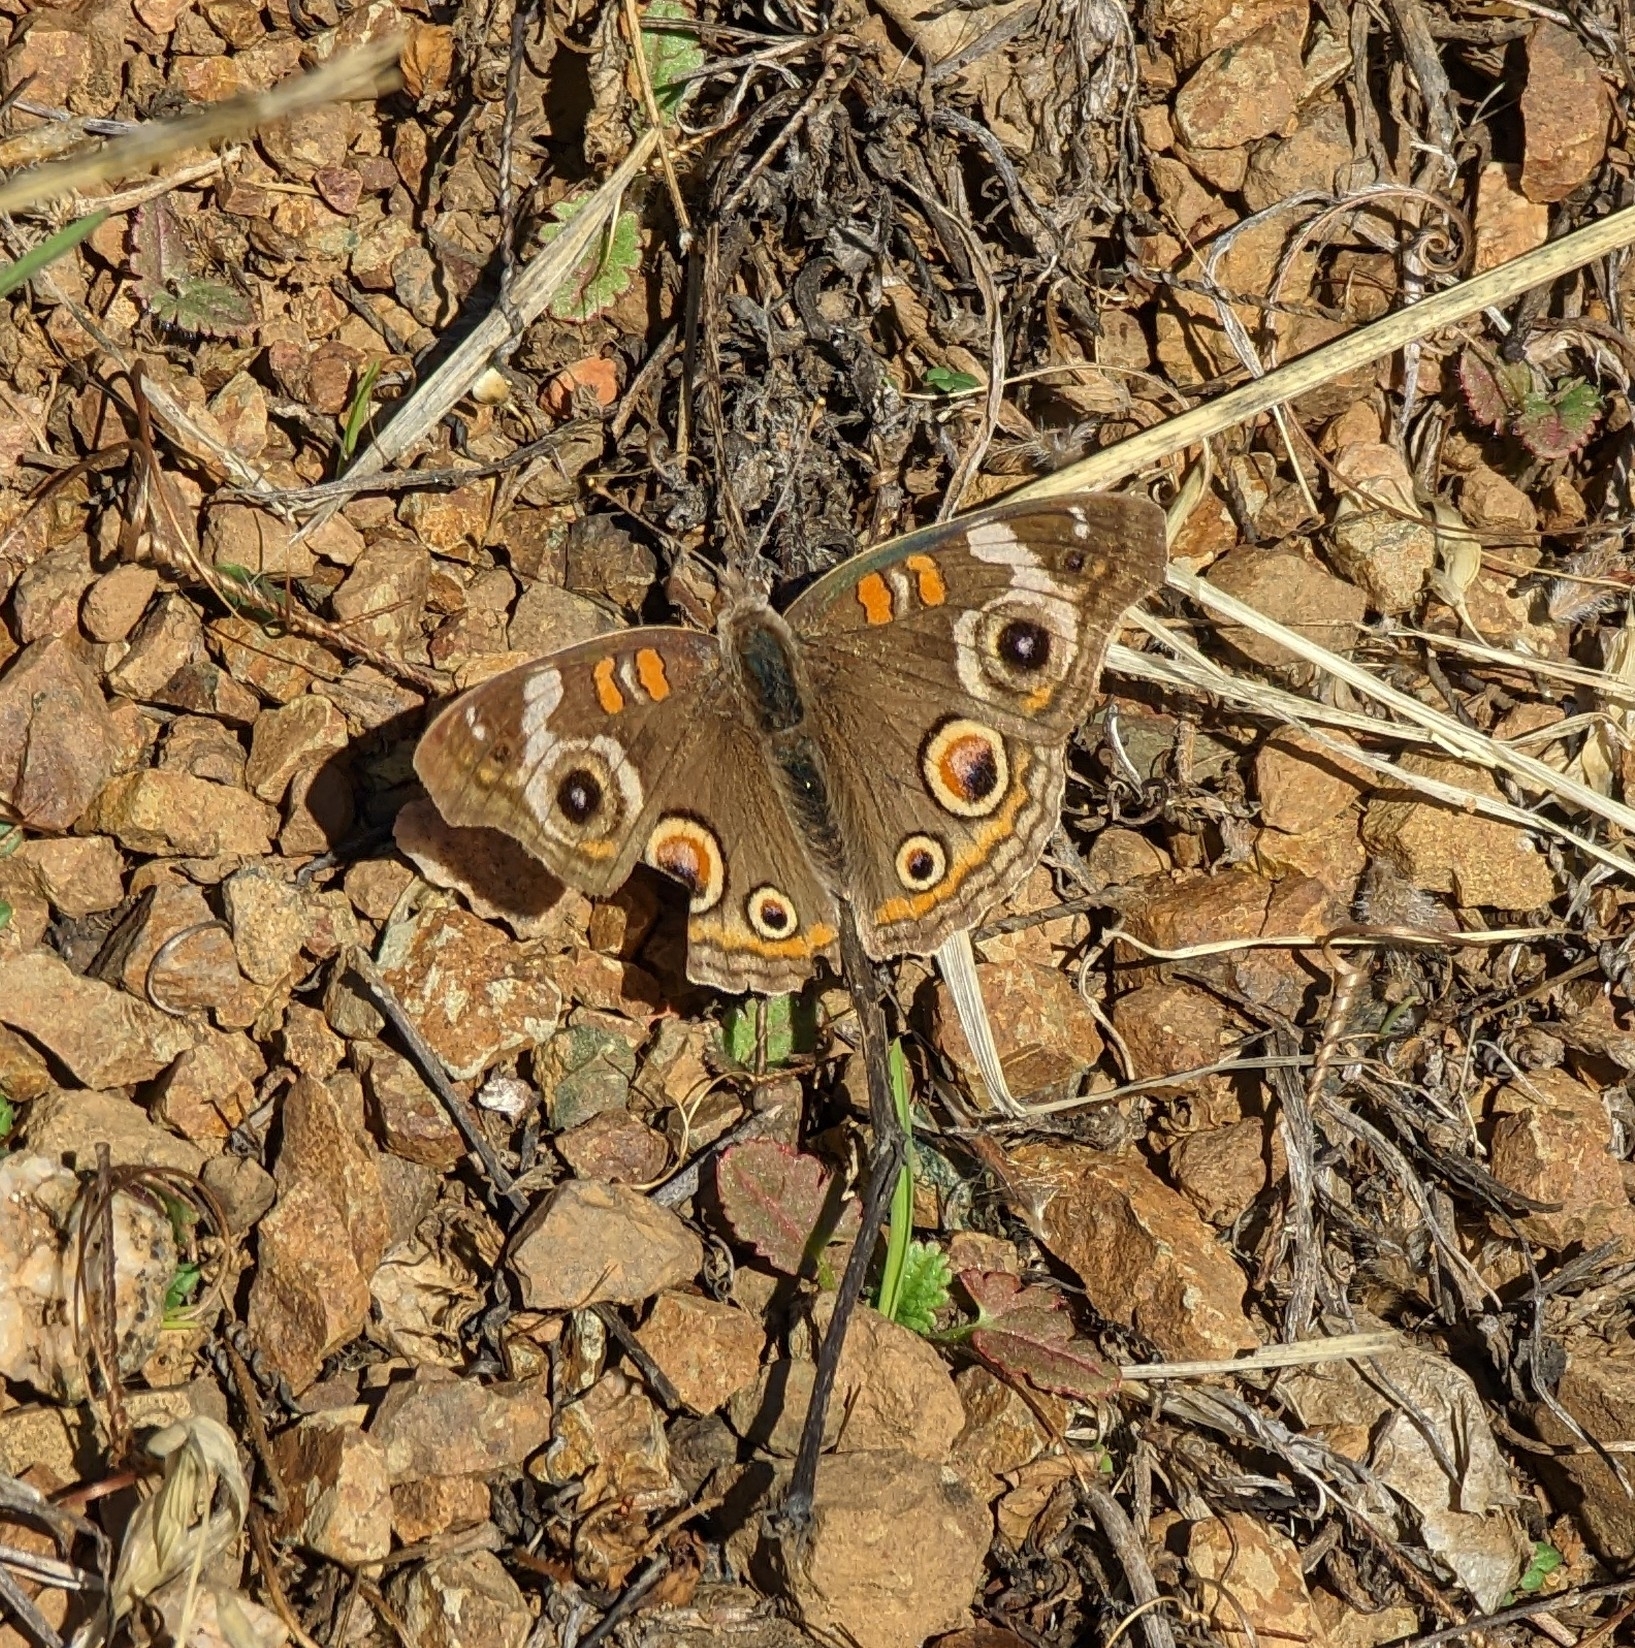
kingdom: Animalia
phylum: Arthropoda
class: Insecta
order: Lepidoptera
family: Nymphalidae
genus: Junonia
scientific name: Junonia grisea
